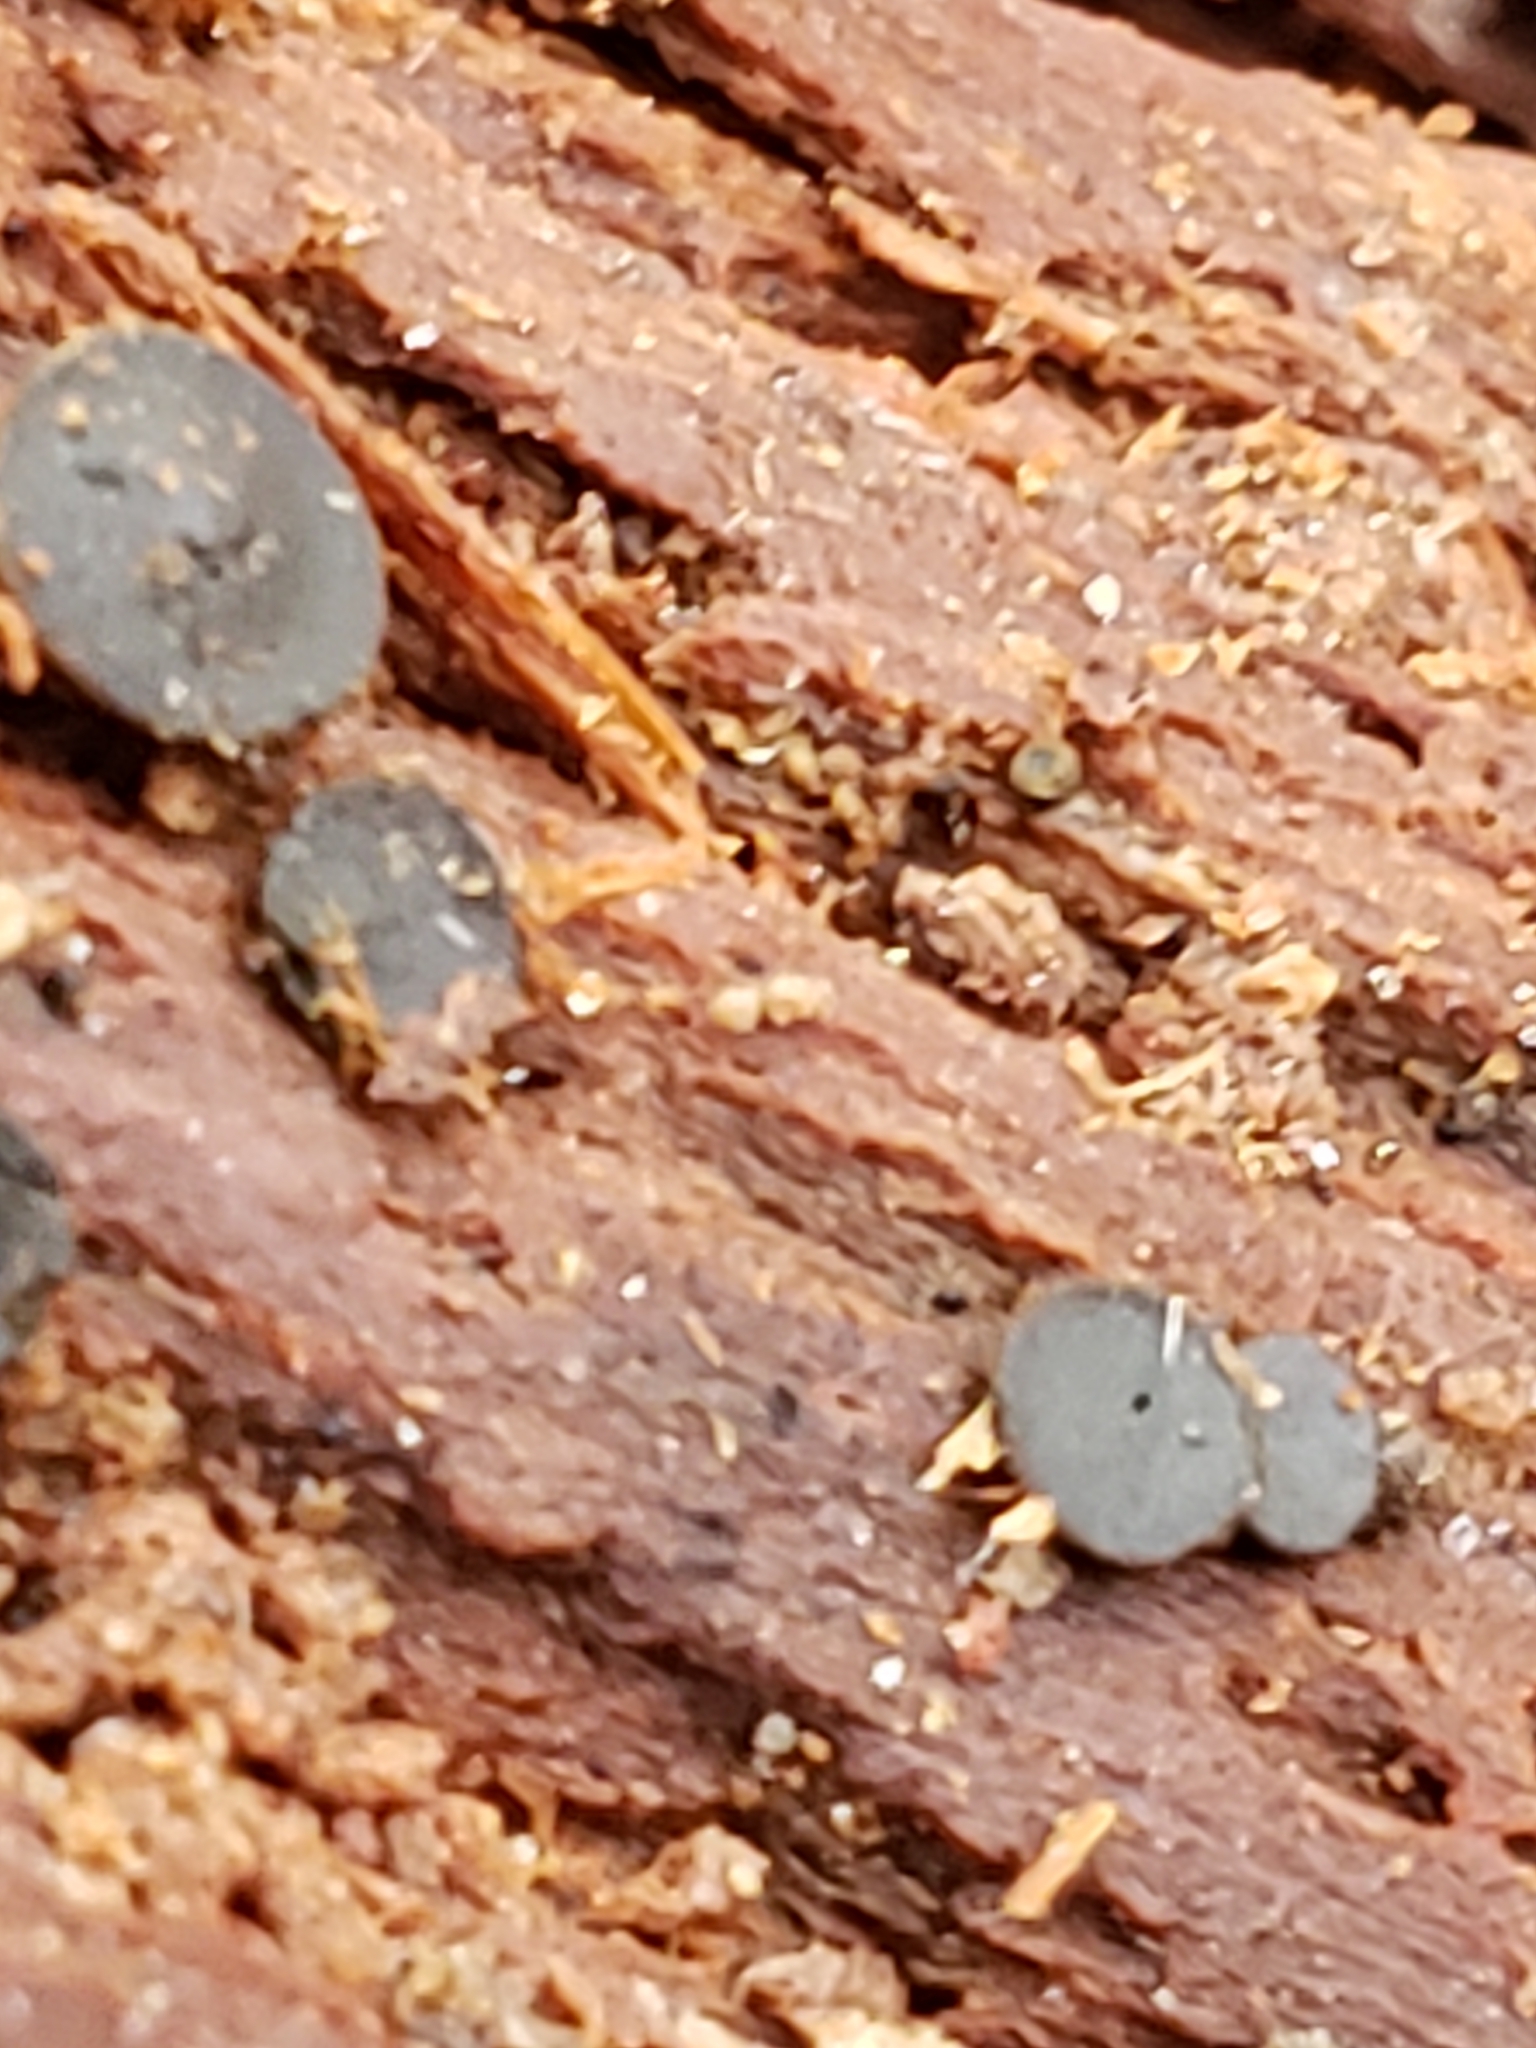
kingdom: Fungi
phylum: Ascomycota
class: Dothideomycetes
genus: Catinella
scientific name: Catinella olivacea
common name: Olive salver
